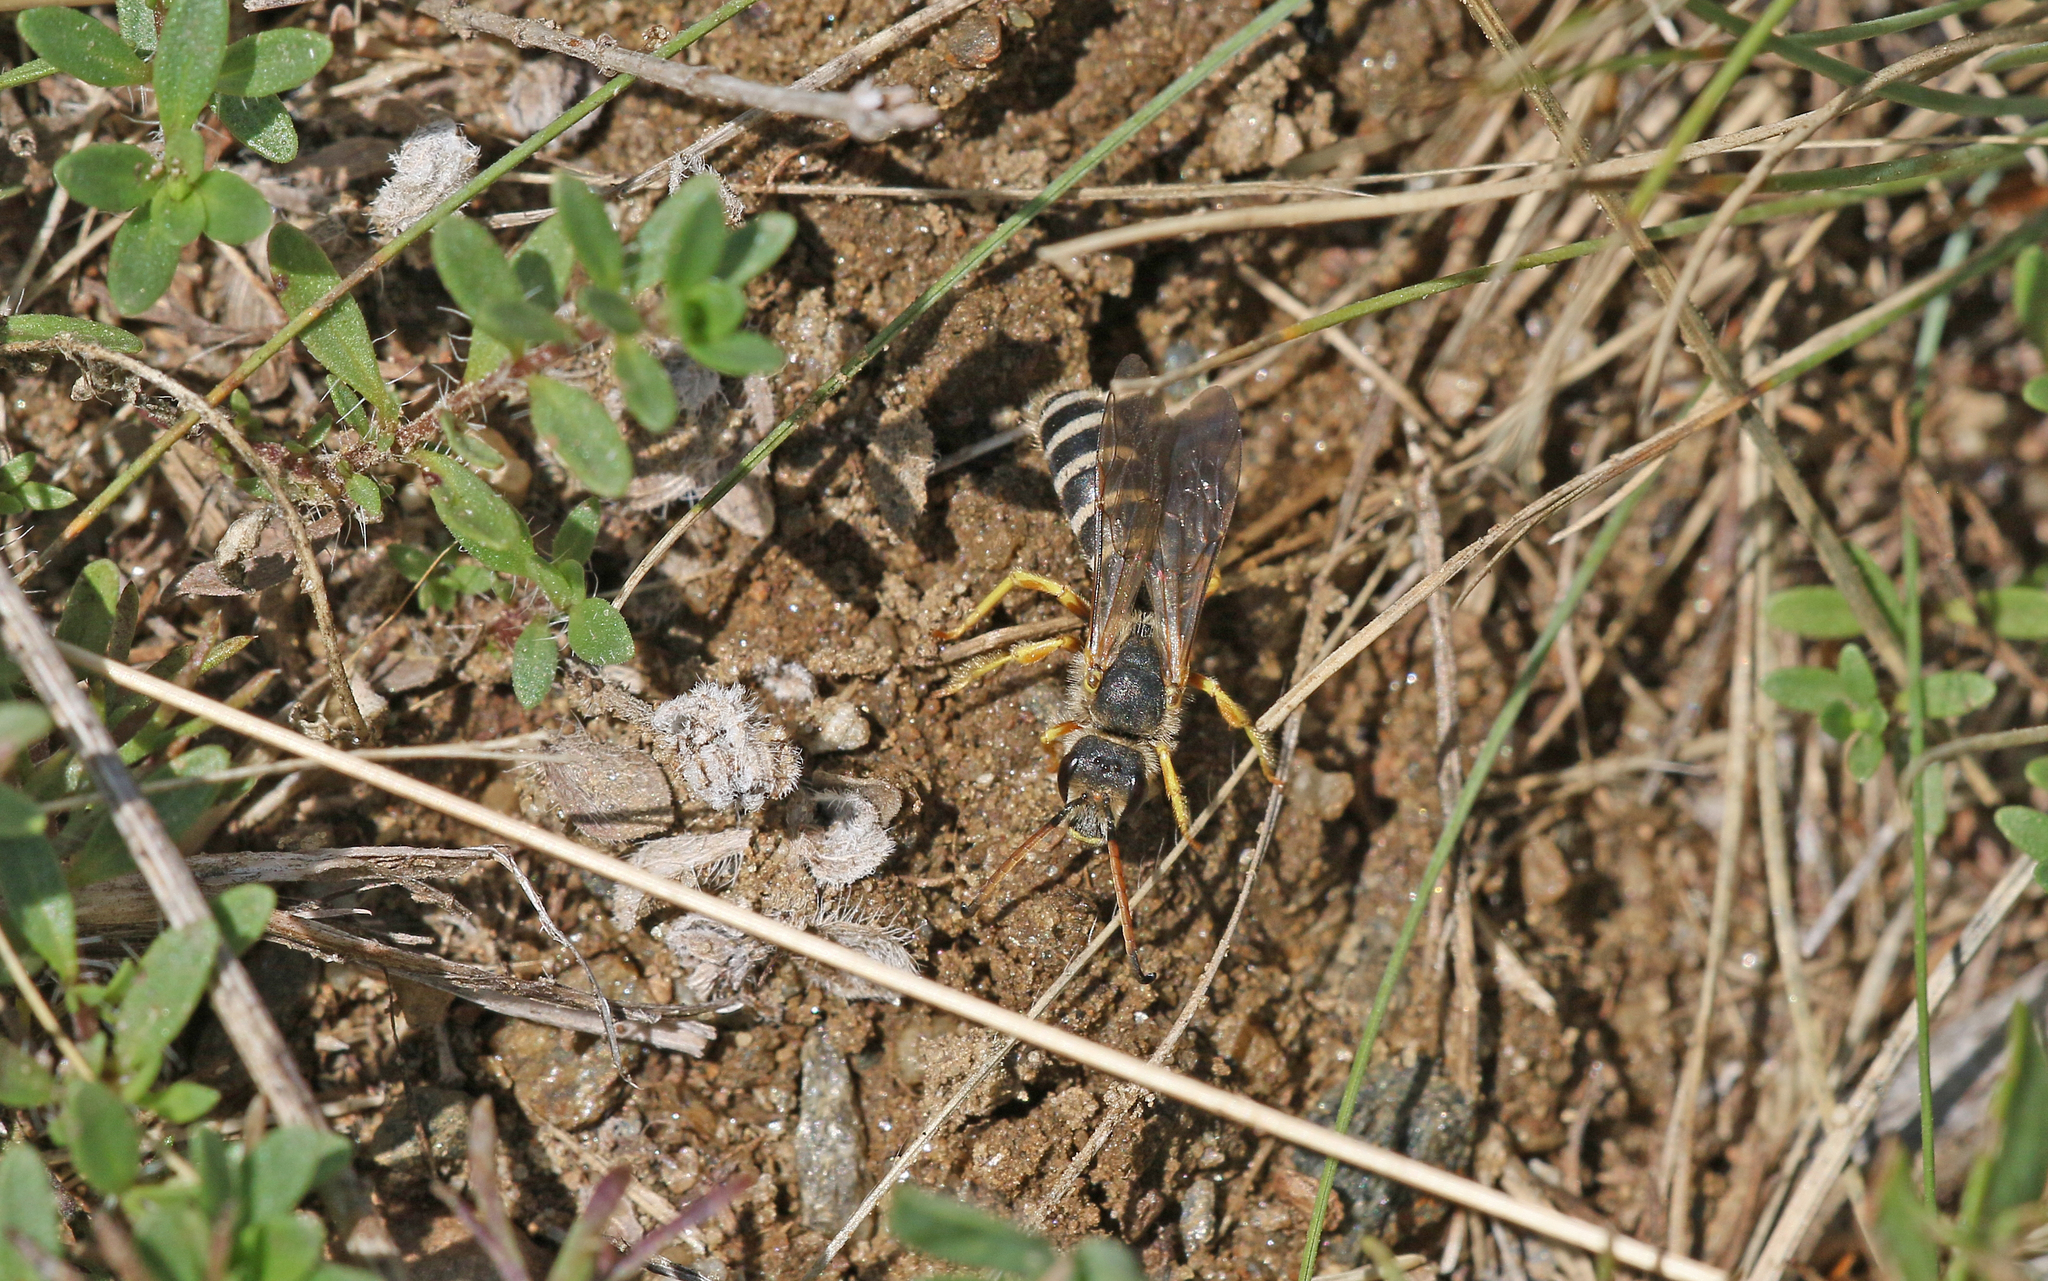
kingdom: Animalia
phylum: Arthropoda
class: Insecta
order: Hymenoptera
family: Halictidae
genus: Halictus
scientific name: Halictus sexcinctus
